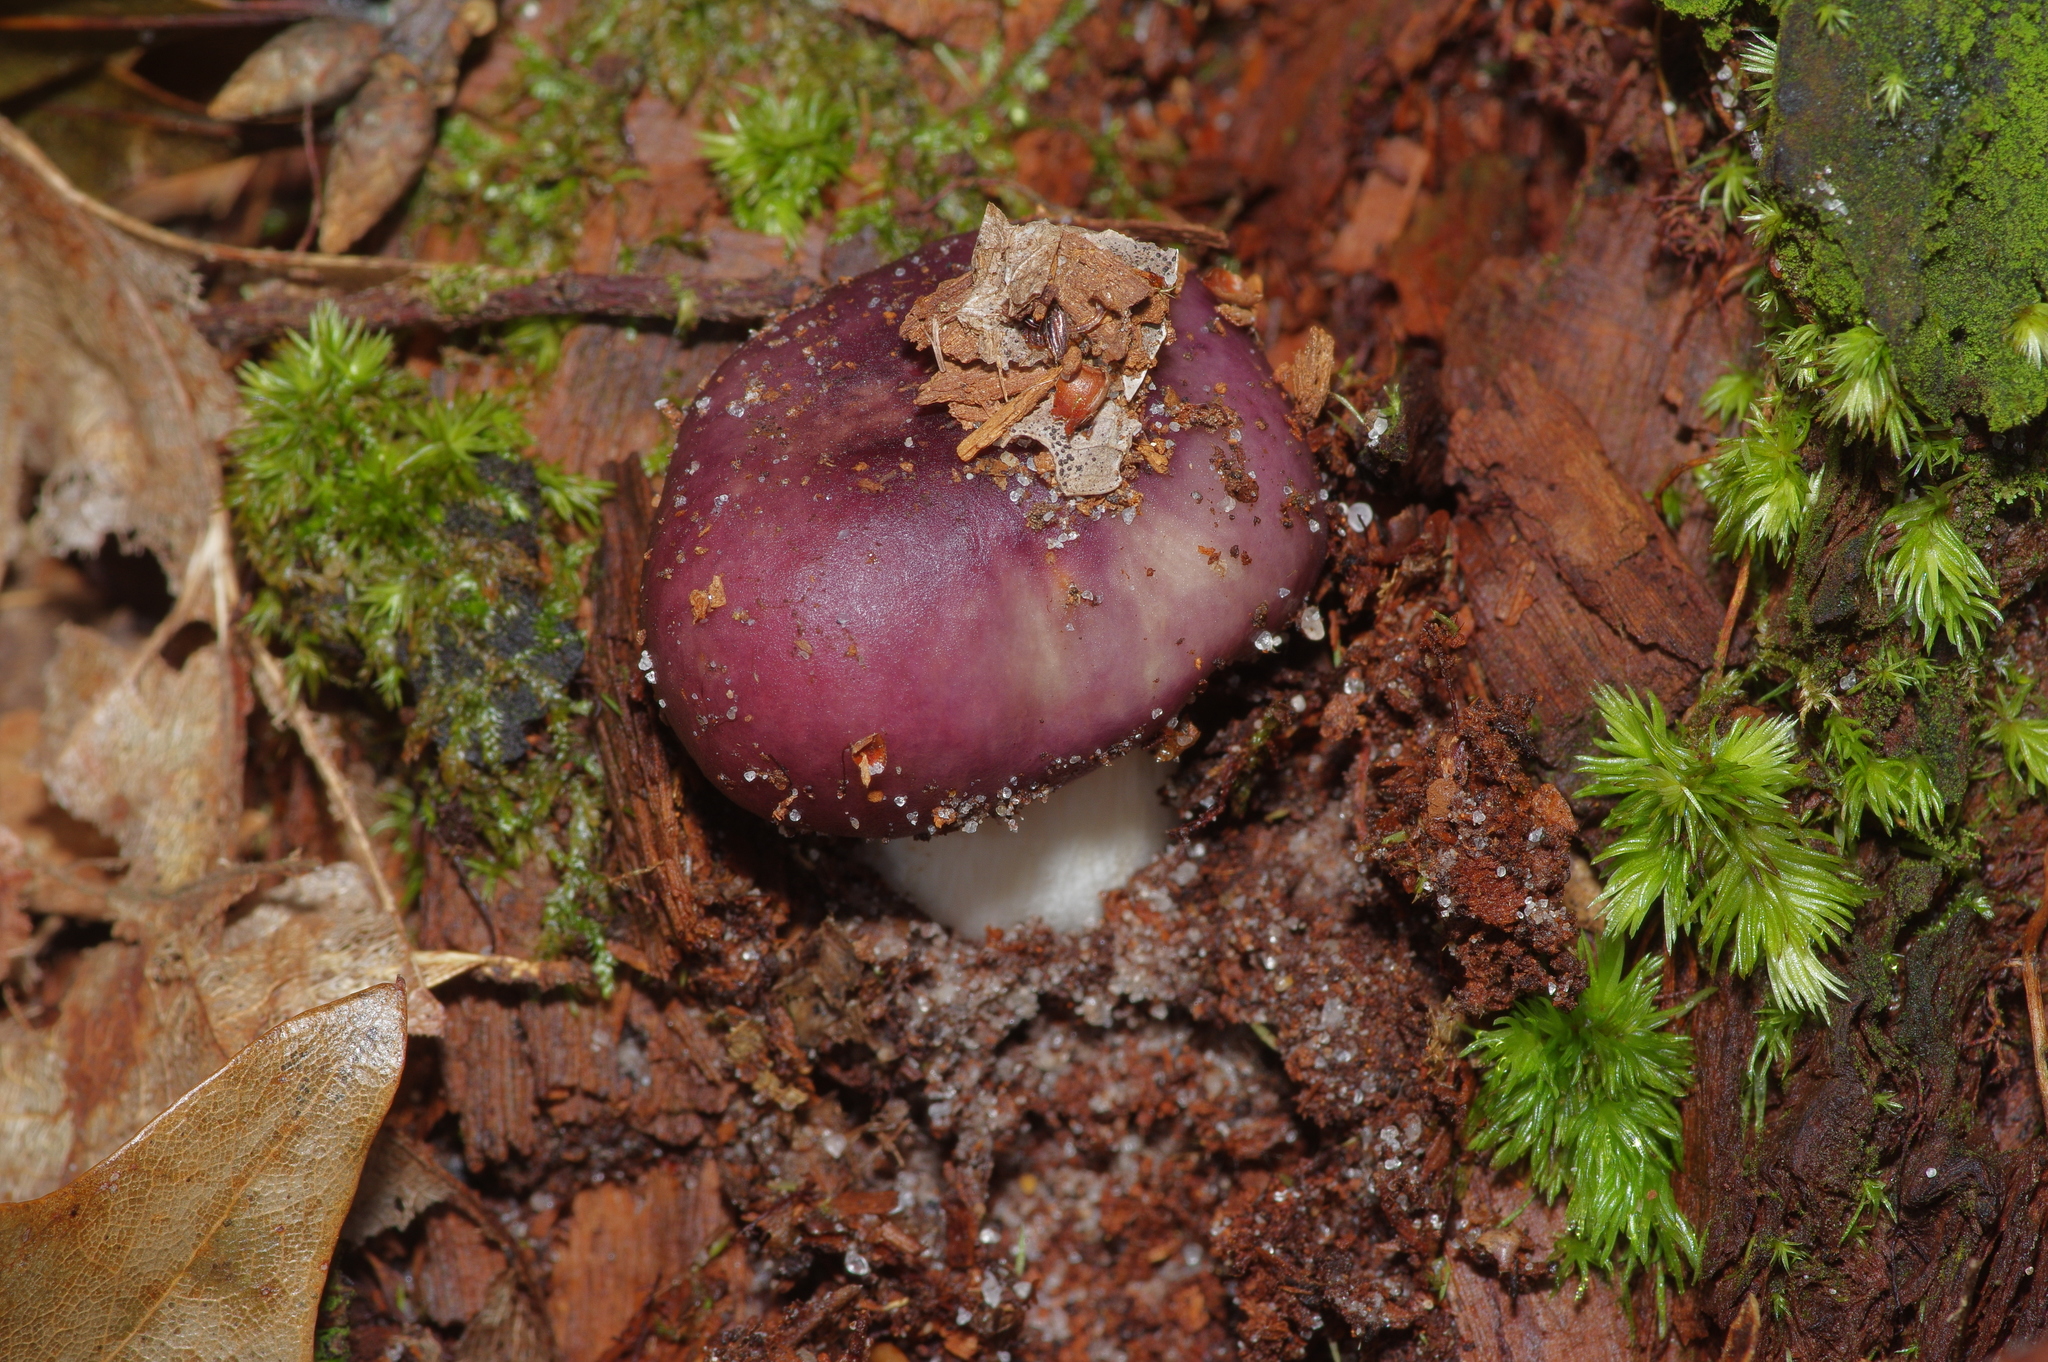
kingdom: Fungi
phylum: Basidiomycota
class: Agaricomycetes
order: Russulales
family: Russulaceae
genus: Russula
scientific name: Russula atropurpurea
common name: Blackish-purple russula
